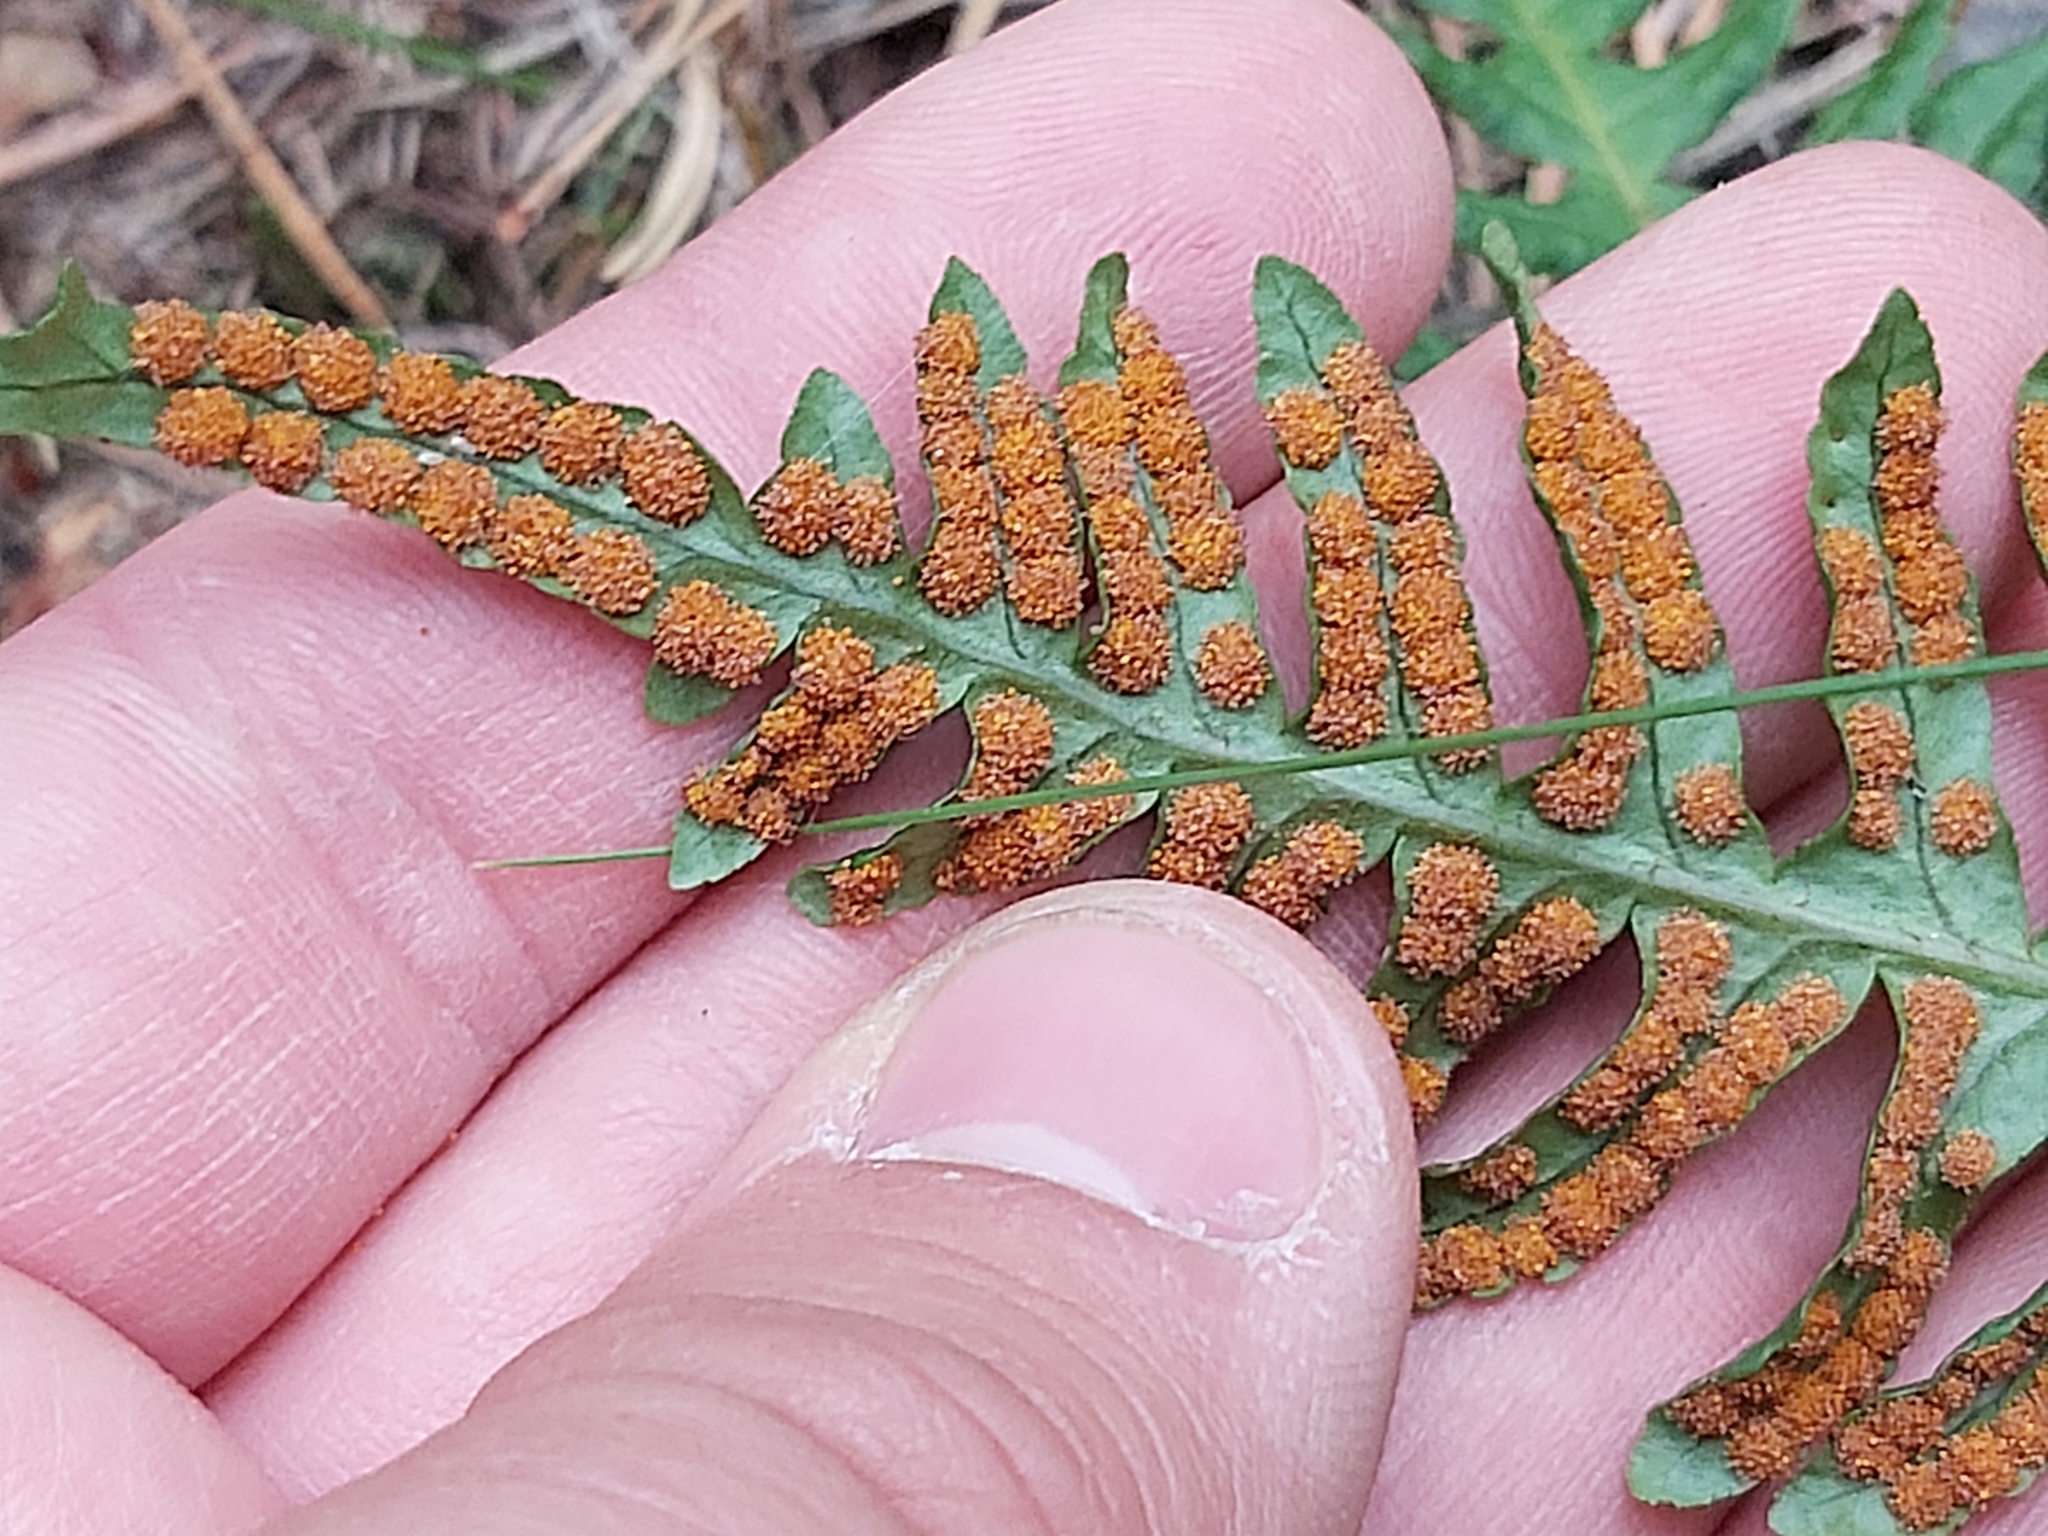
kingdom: Plantae
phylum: Tracheophyta
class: Polypodiopsida
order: Polypodiales
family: Polypodiaceae
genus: Polypodium
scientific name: Polypodium vulgare
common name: Common polypody
